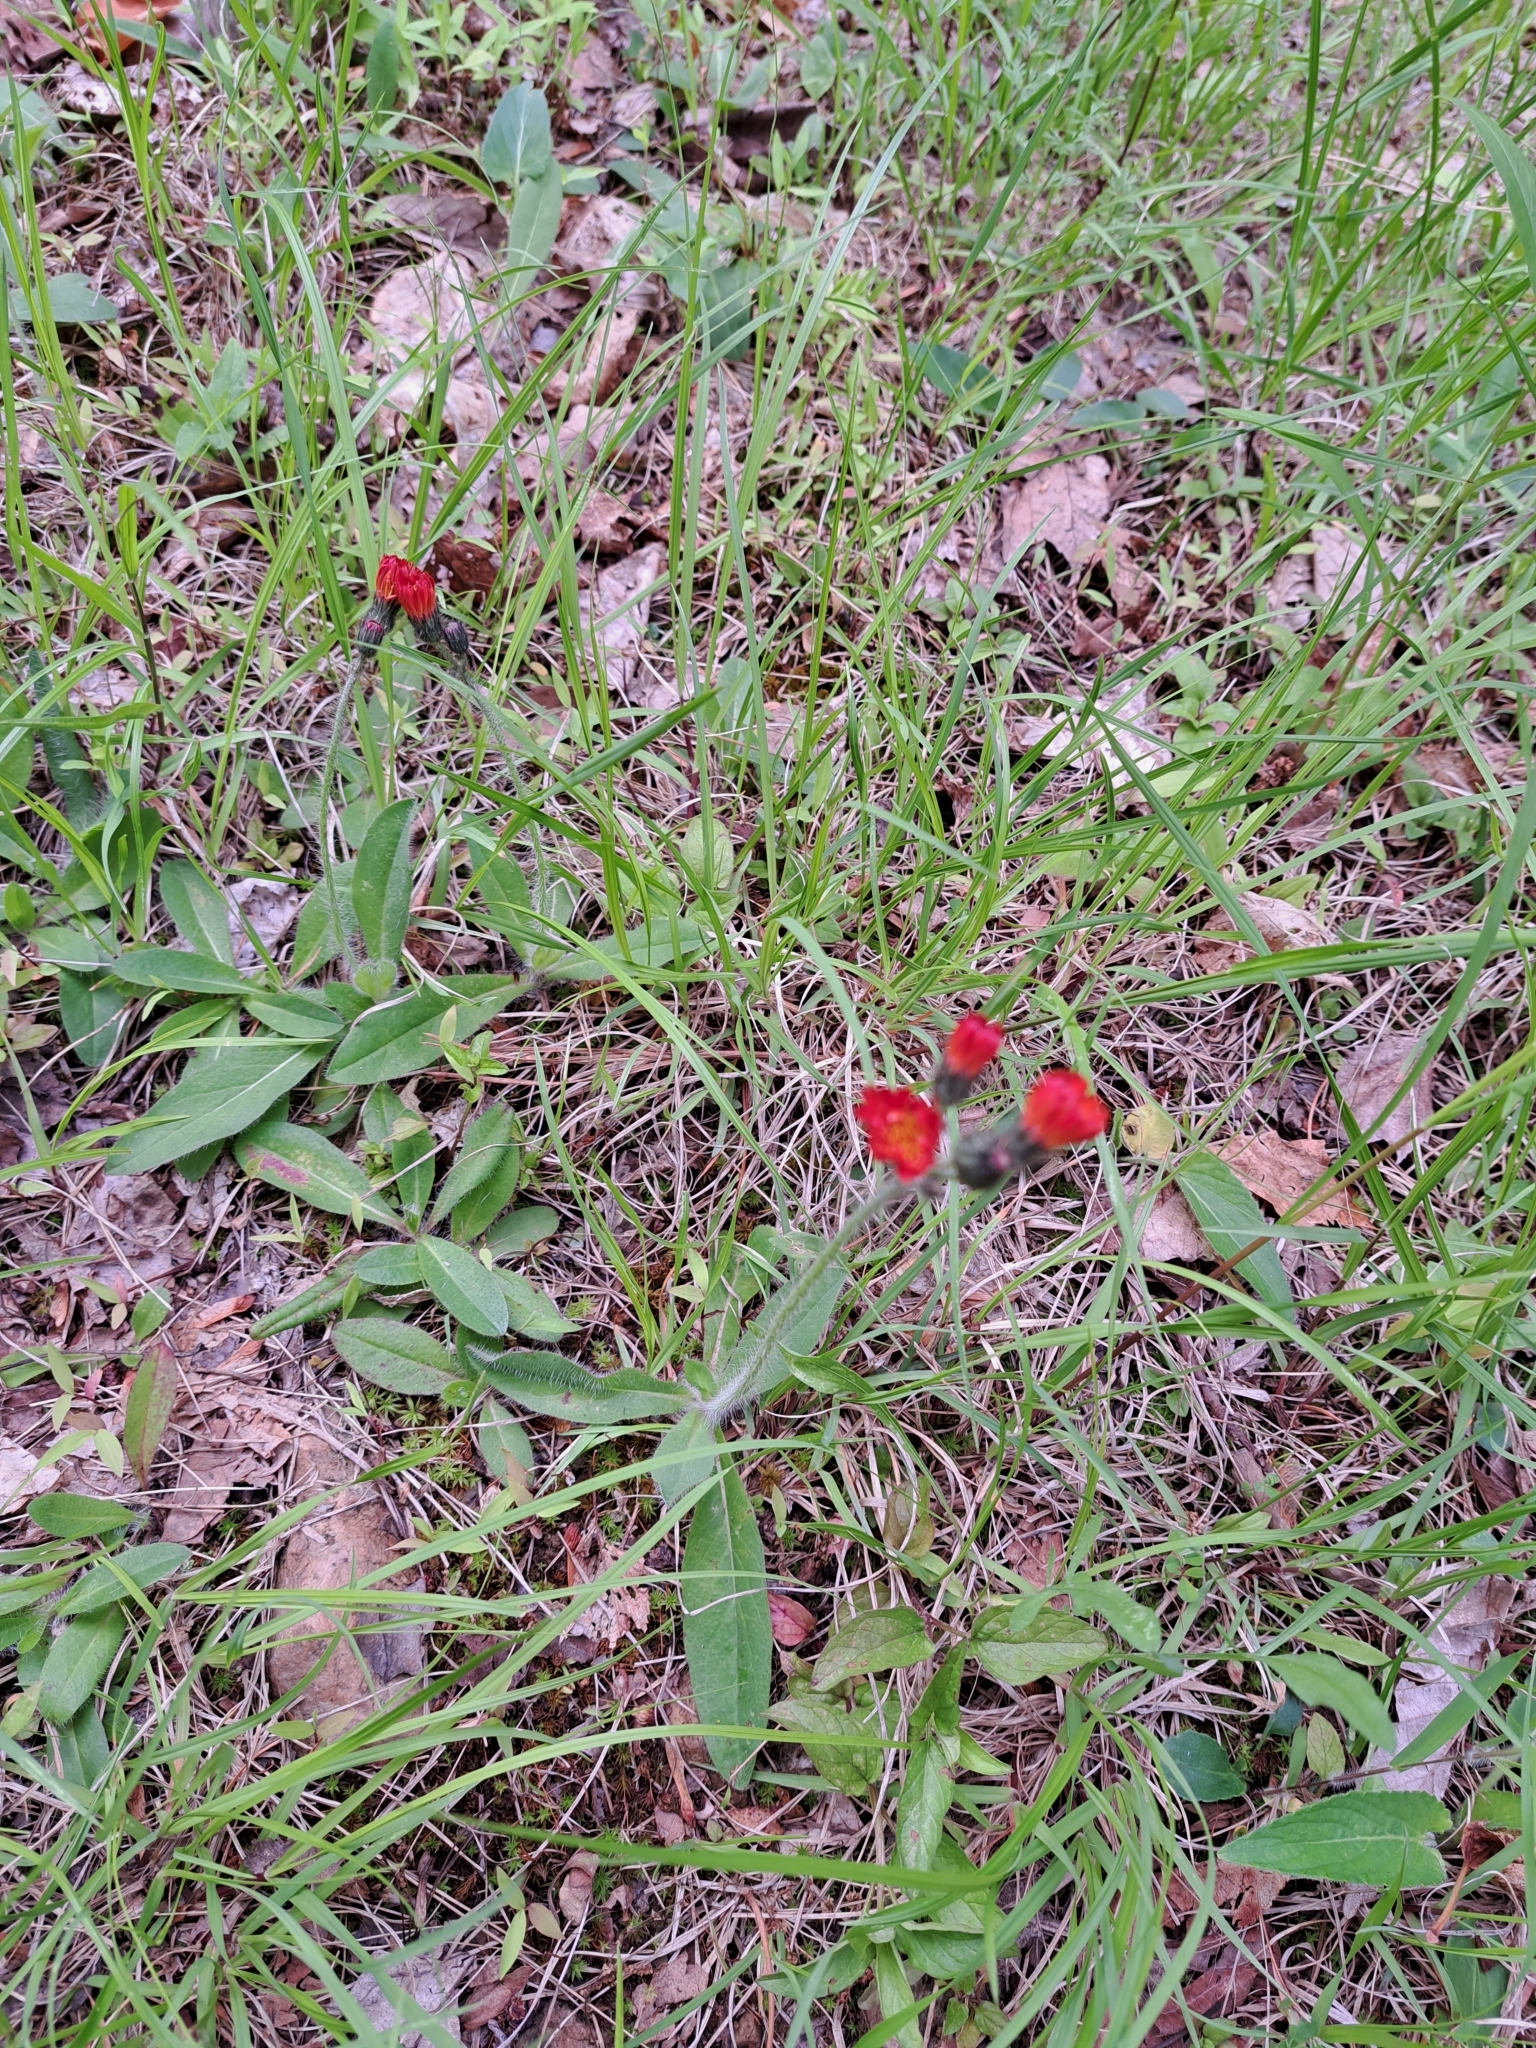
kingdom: Plantae
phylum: Tracheophyta
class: Magnoliopsida
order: Asterales
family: Asteraceae
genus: Pilosella
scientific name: Pilosella aurantiaca
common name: Fox-and-cubs
